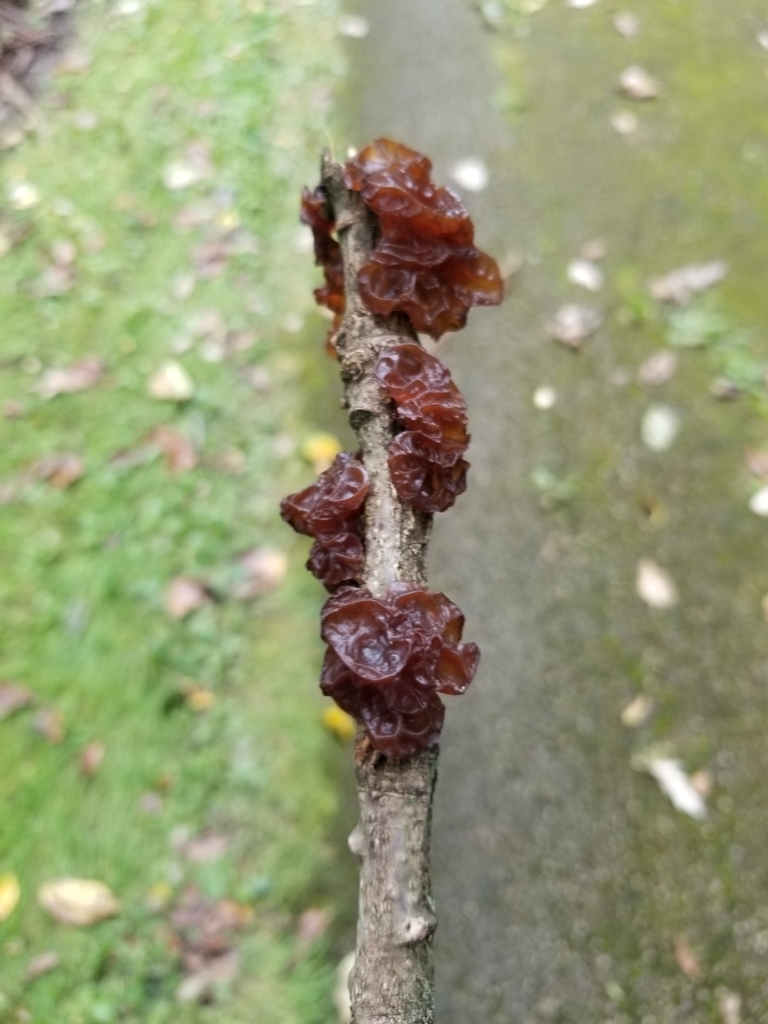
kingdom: Fungi
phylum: Basidiomycota
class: Agaricomycetes
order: Auriculariales
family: Auriculariaceae
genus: Exidia
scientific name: Exidia
